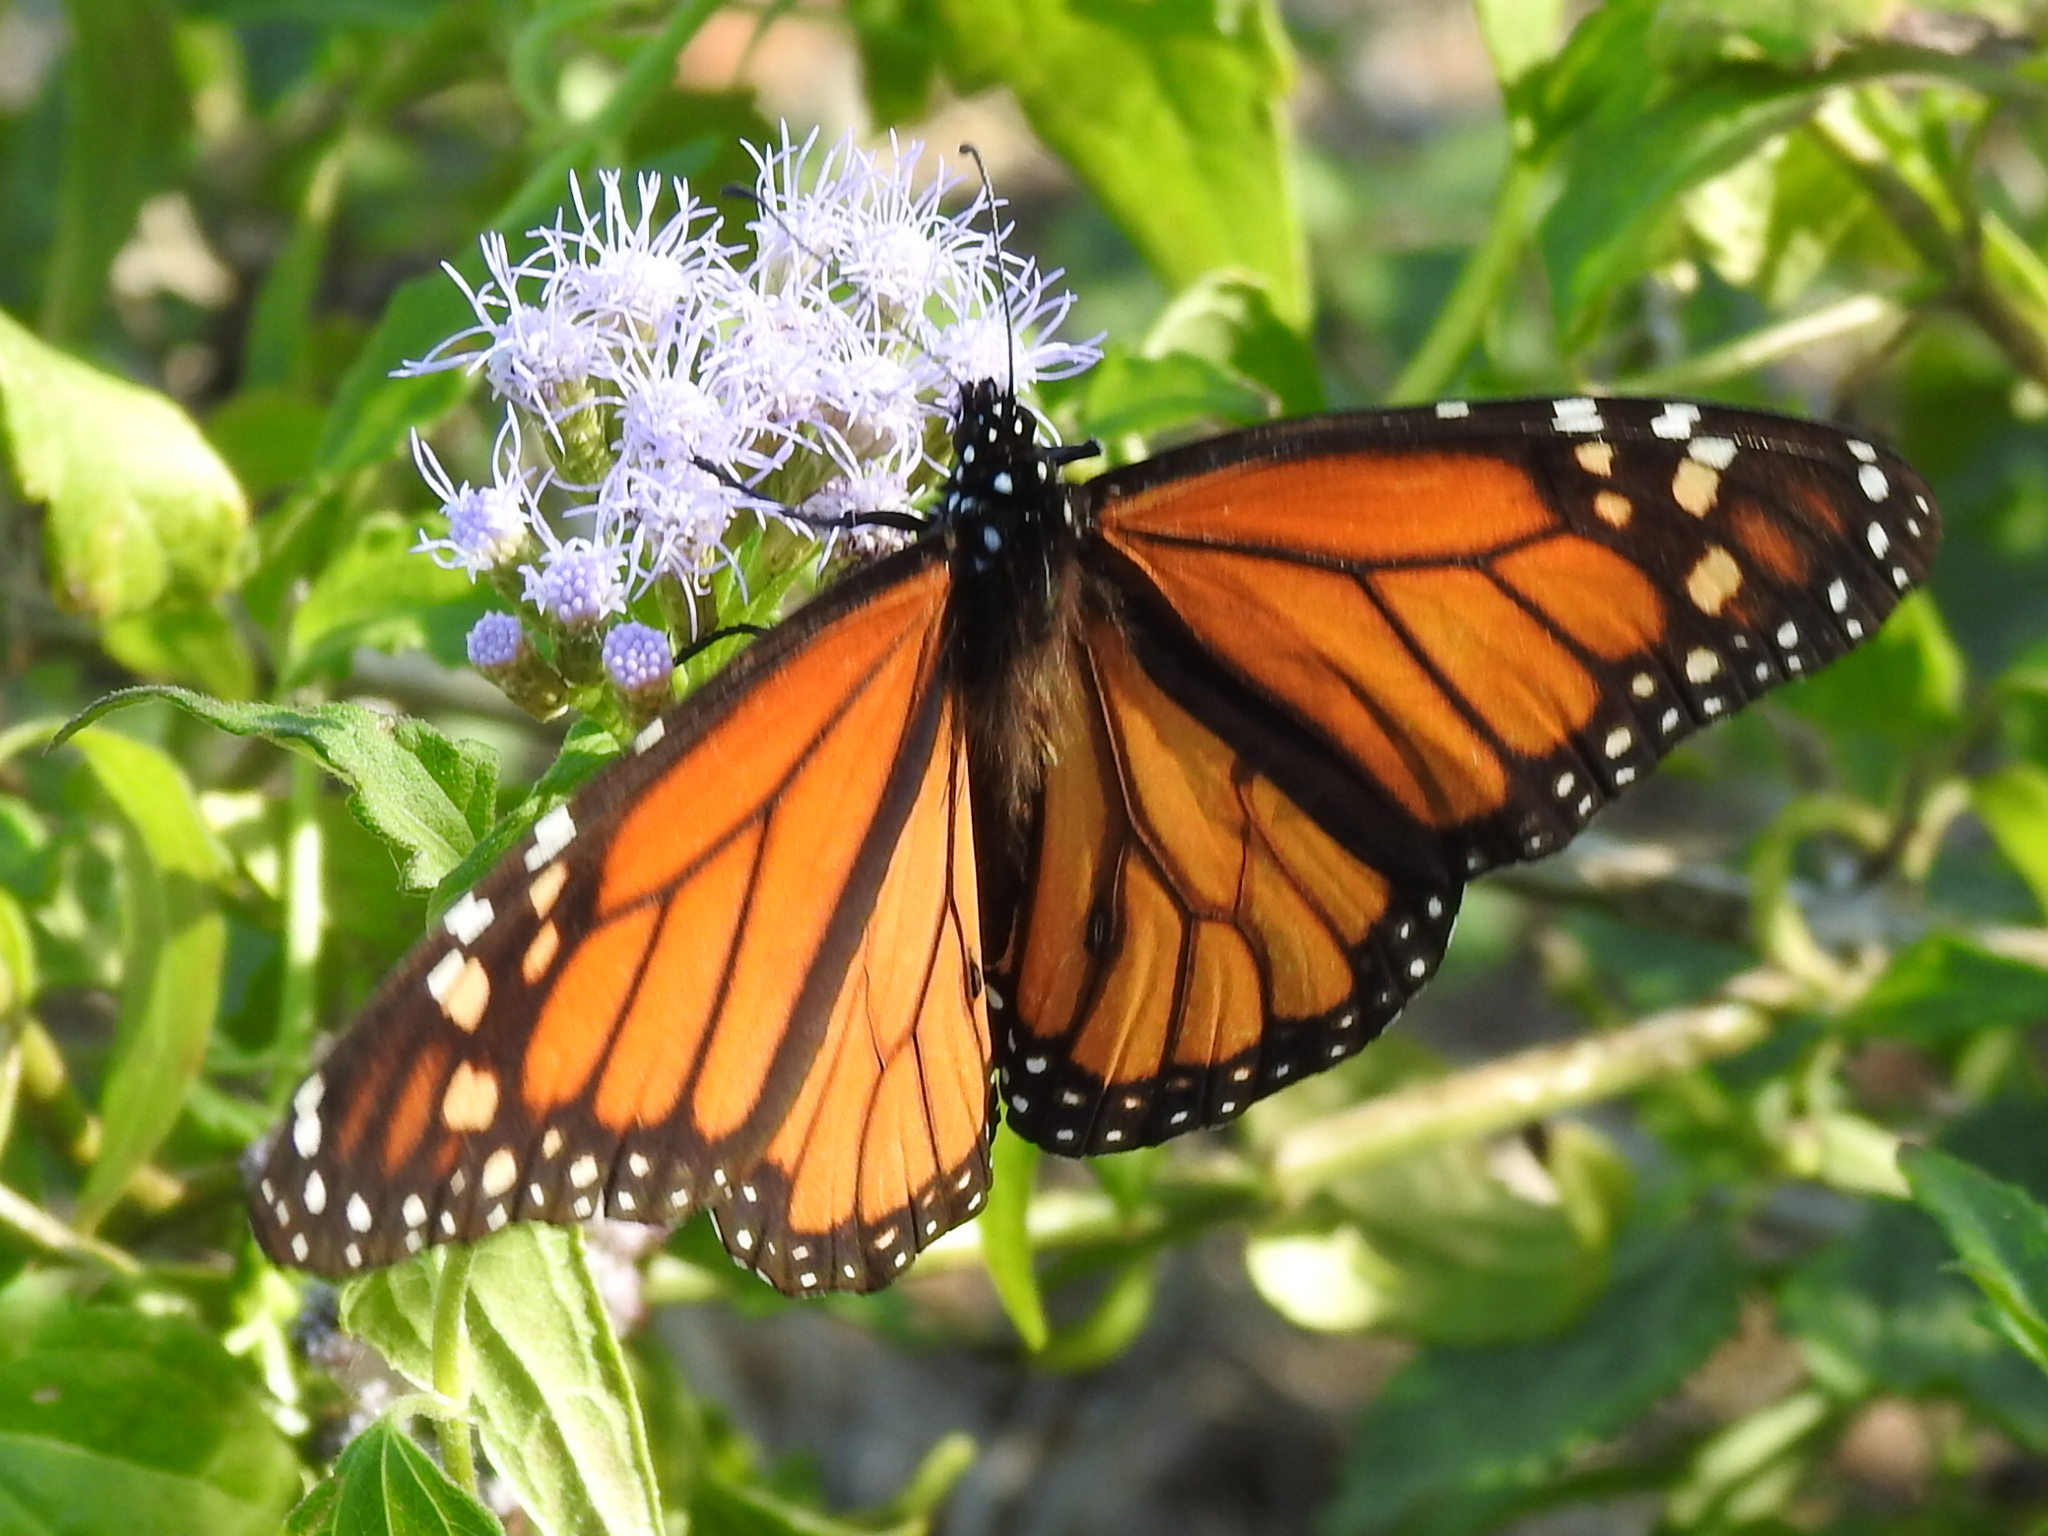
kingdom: Animalia
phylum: Arthropoda
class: Insecta
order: Lepidoptera
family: Nymphalidae
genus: Danaus
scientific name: Danaus plexippus
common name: Monarch
